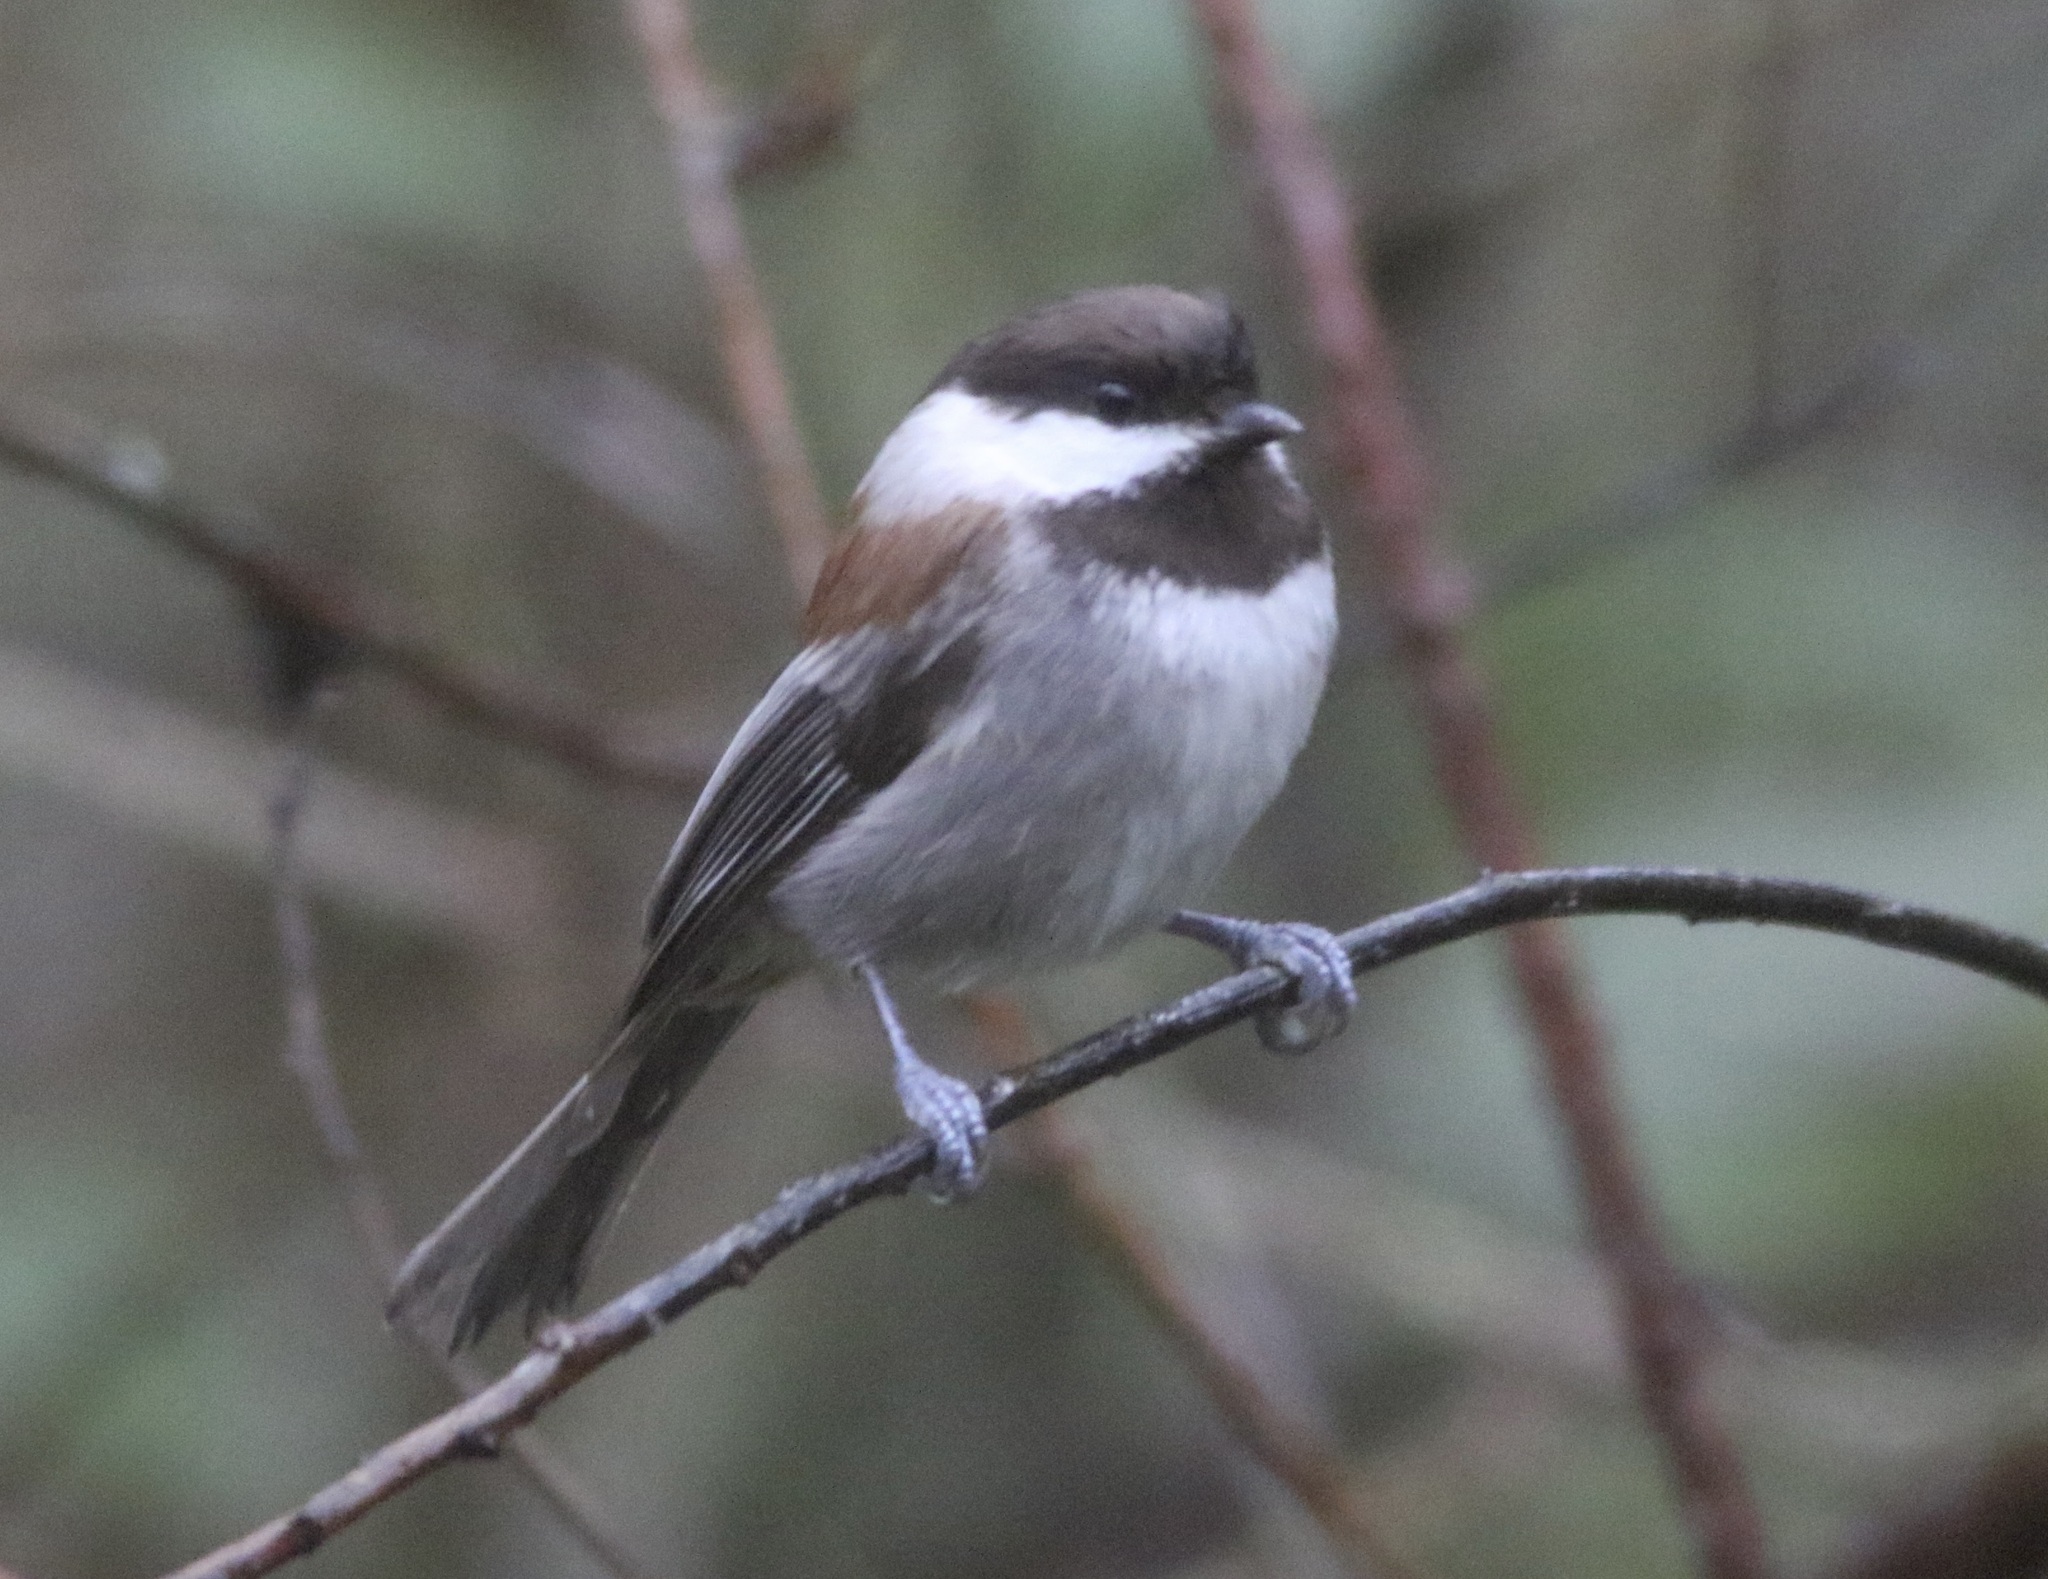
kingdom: Animalia
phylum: Chordata
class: Aves
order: Passeriformes
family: Paridae
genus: Poecile
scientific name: Poecile rufescens
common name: Chestnut-backed chickadee
